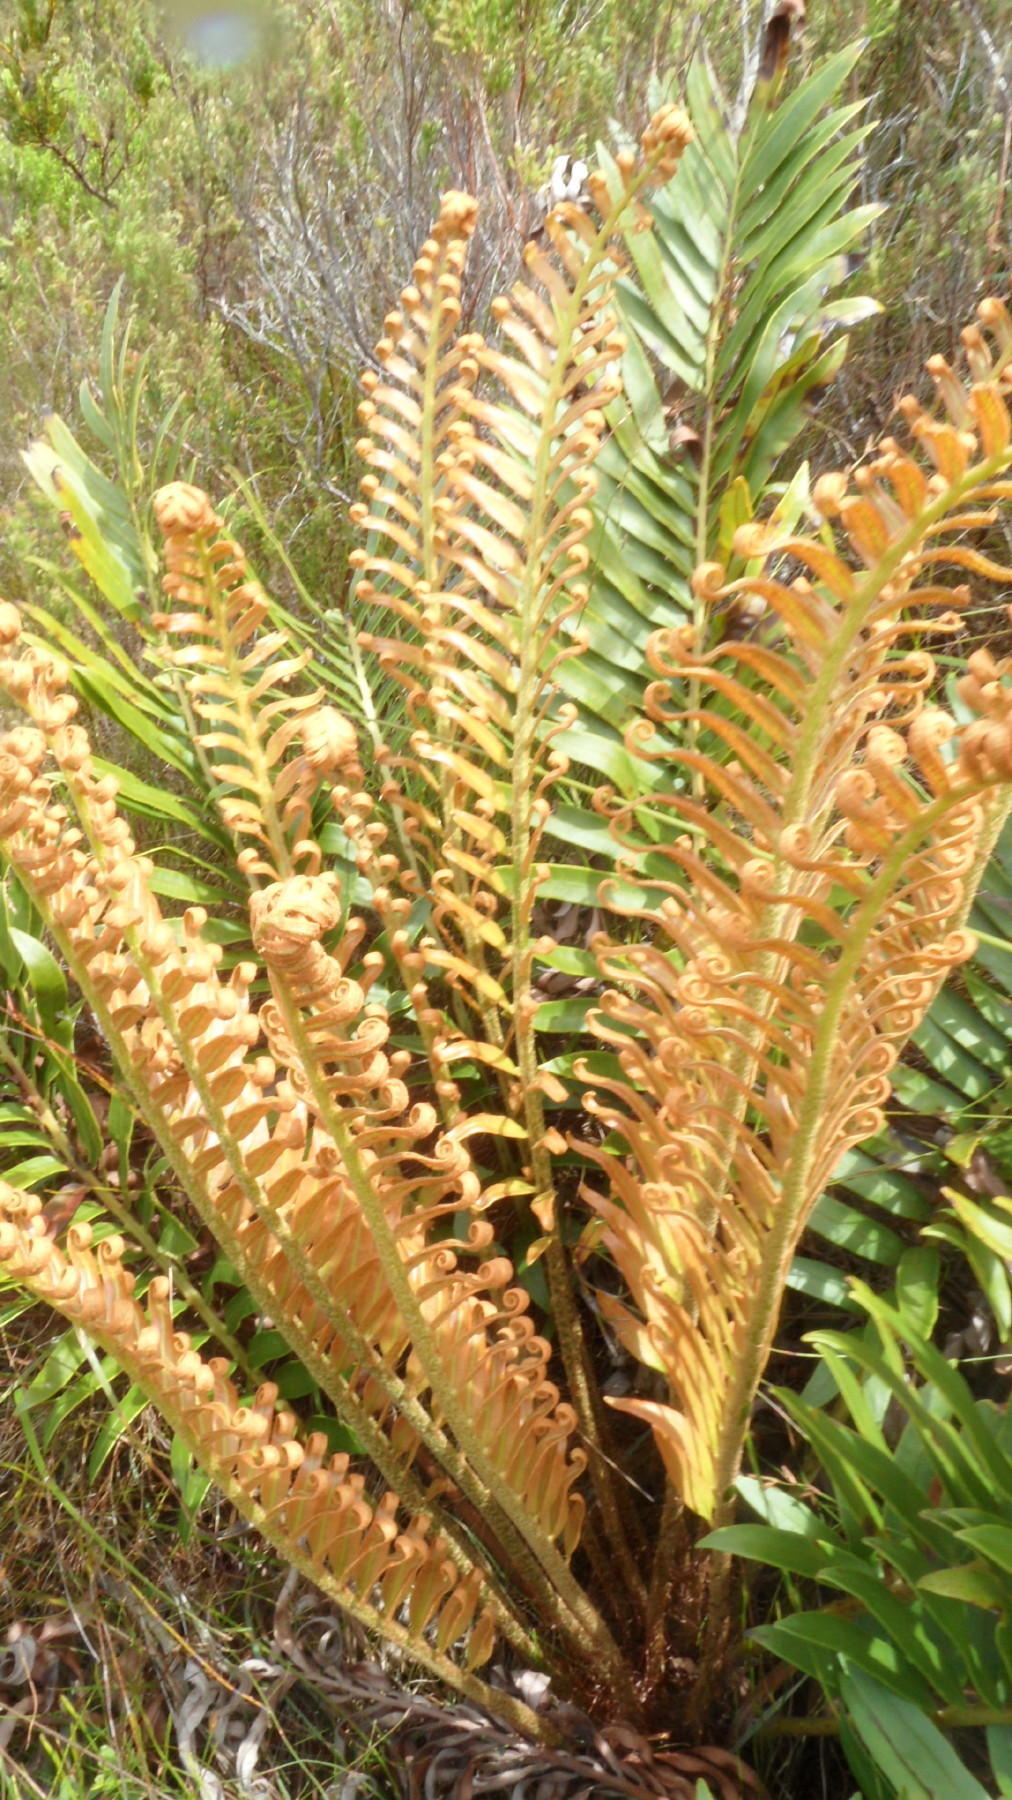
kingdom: Plantae
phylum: Tracheophyta
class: Polypodiopsida
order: Polypodiales
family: Blechnaceae
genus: Lomariocycas
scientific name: Lomariocycas tabularis
